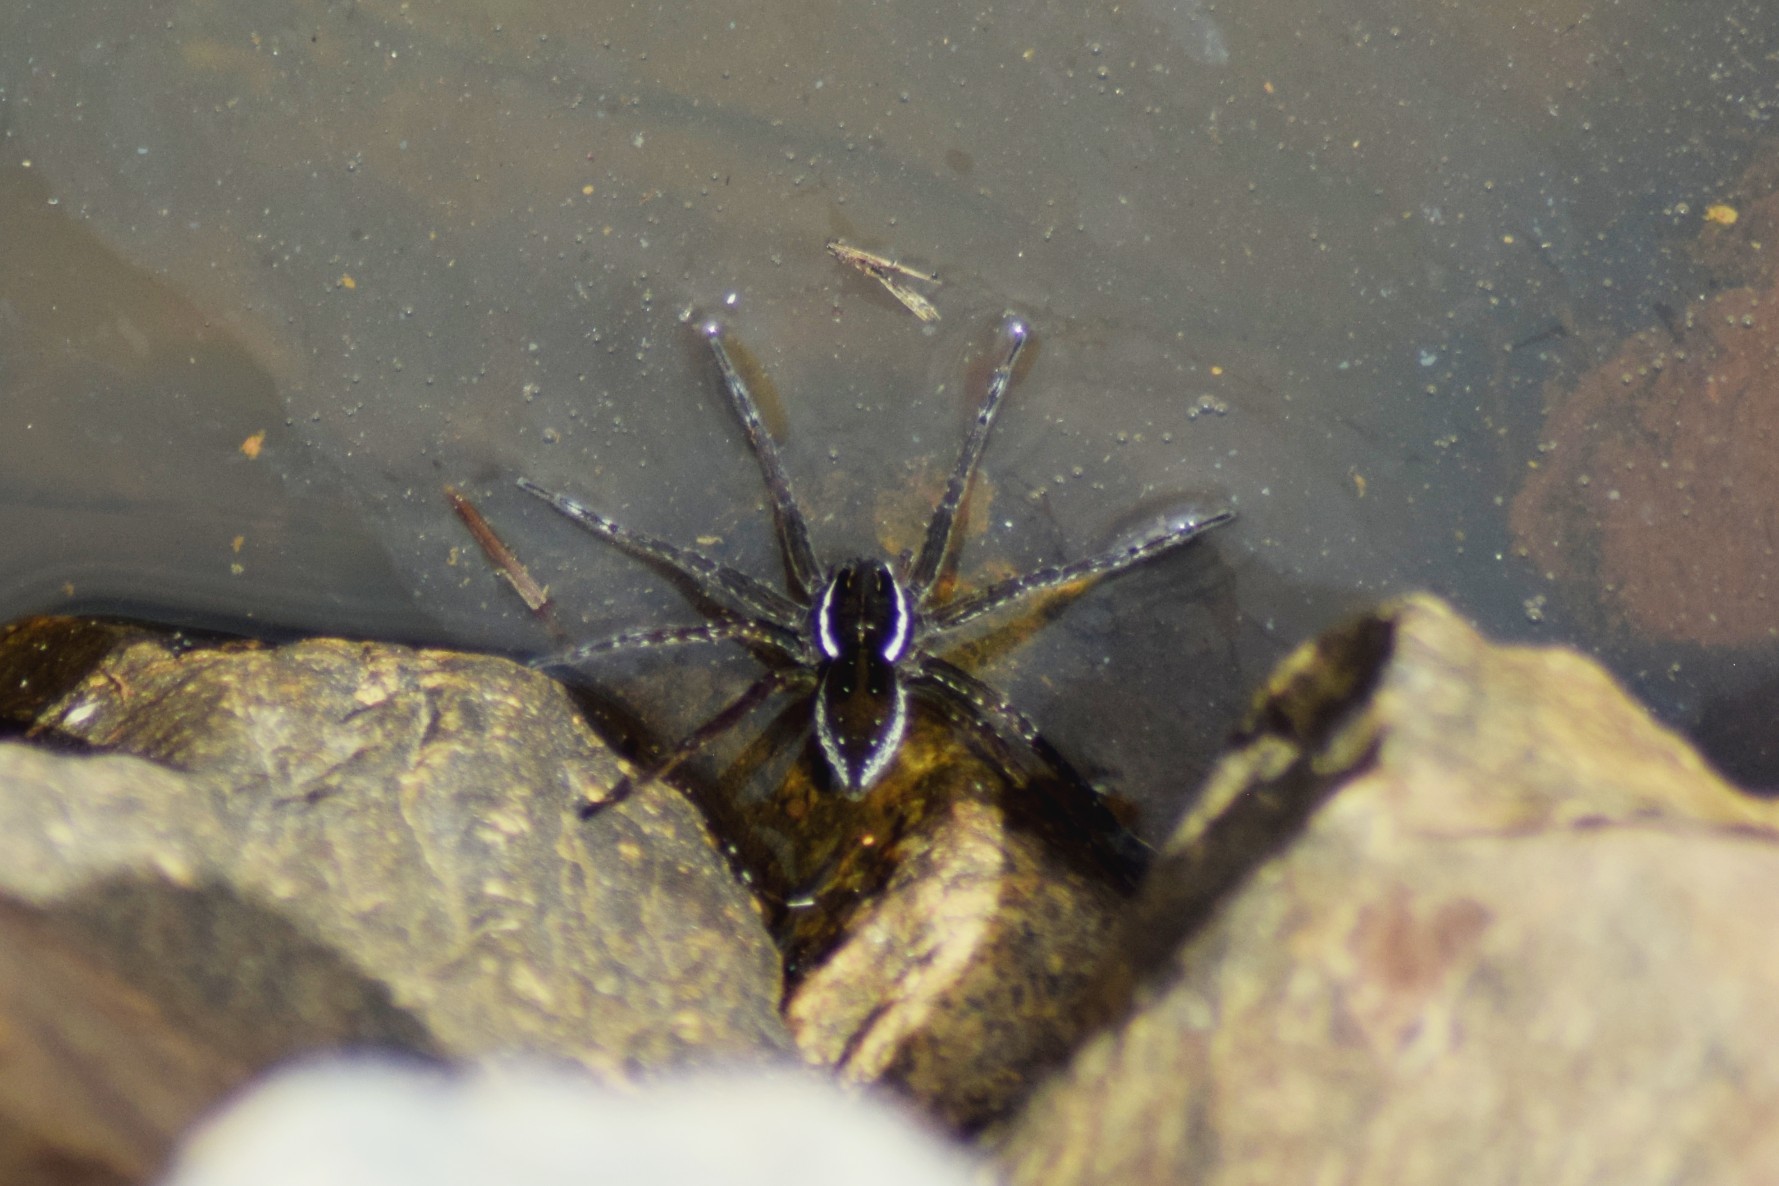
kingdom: Animalia
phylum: Arthropoda
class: Arachnida
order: Araneae
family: Pisauridae
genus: Dolomedes
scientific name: Dolomedes triton
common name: Six-spotted fishing spider
